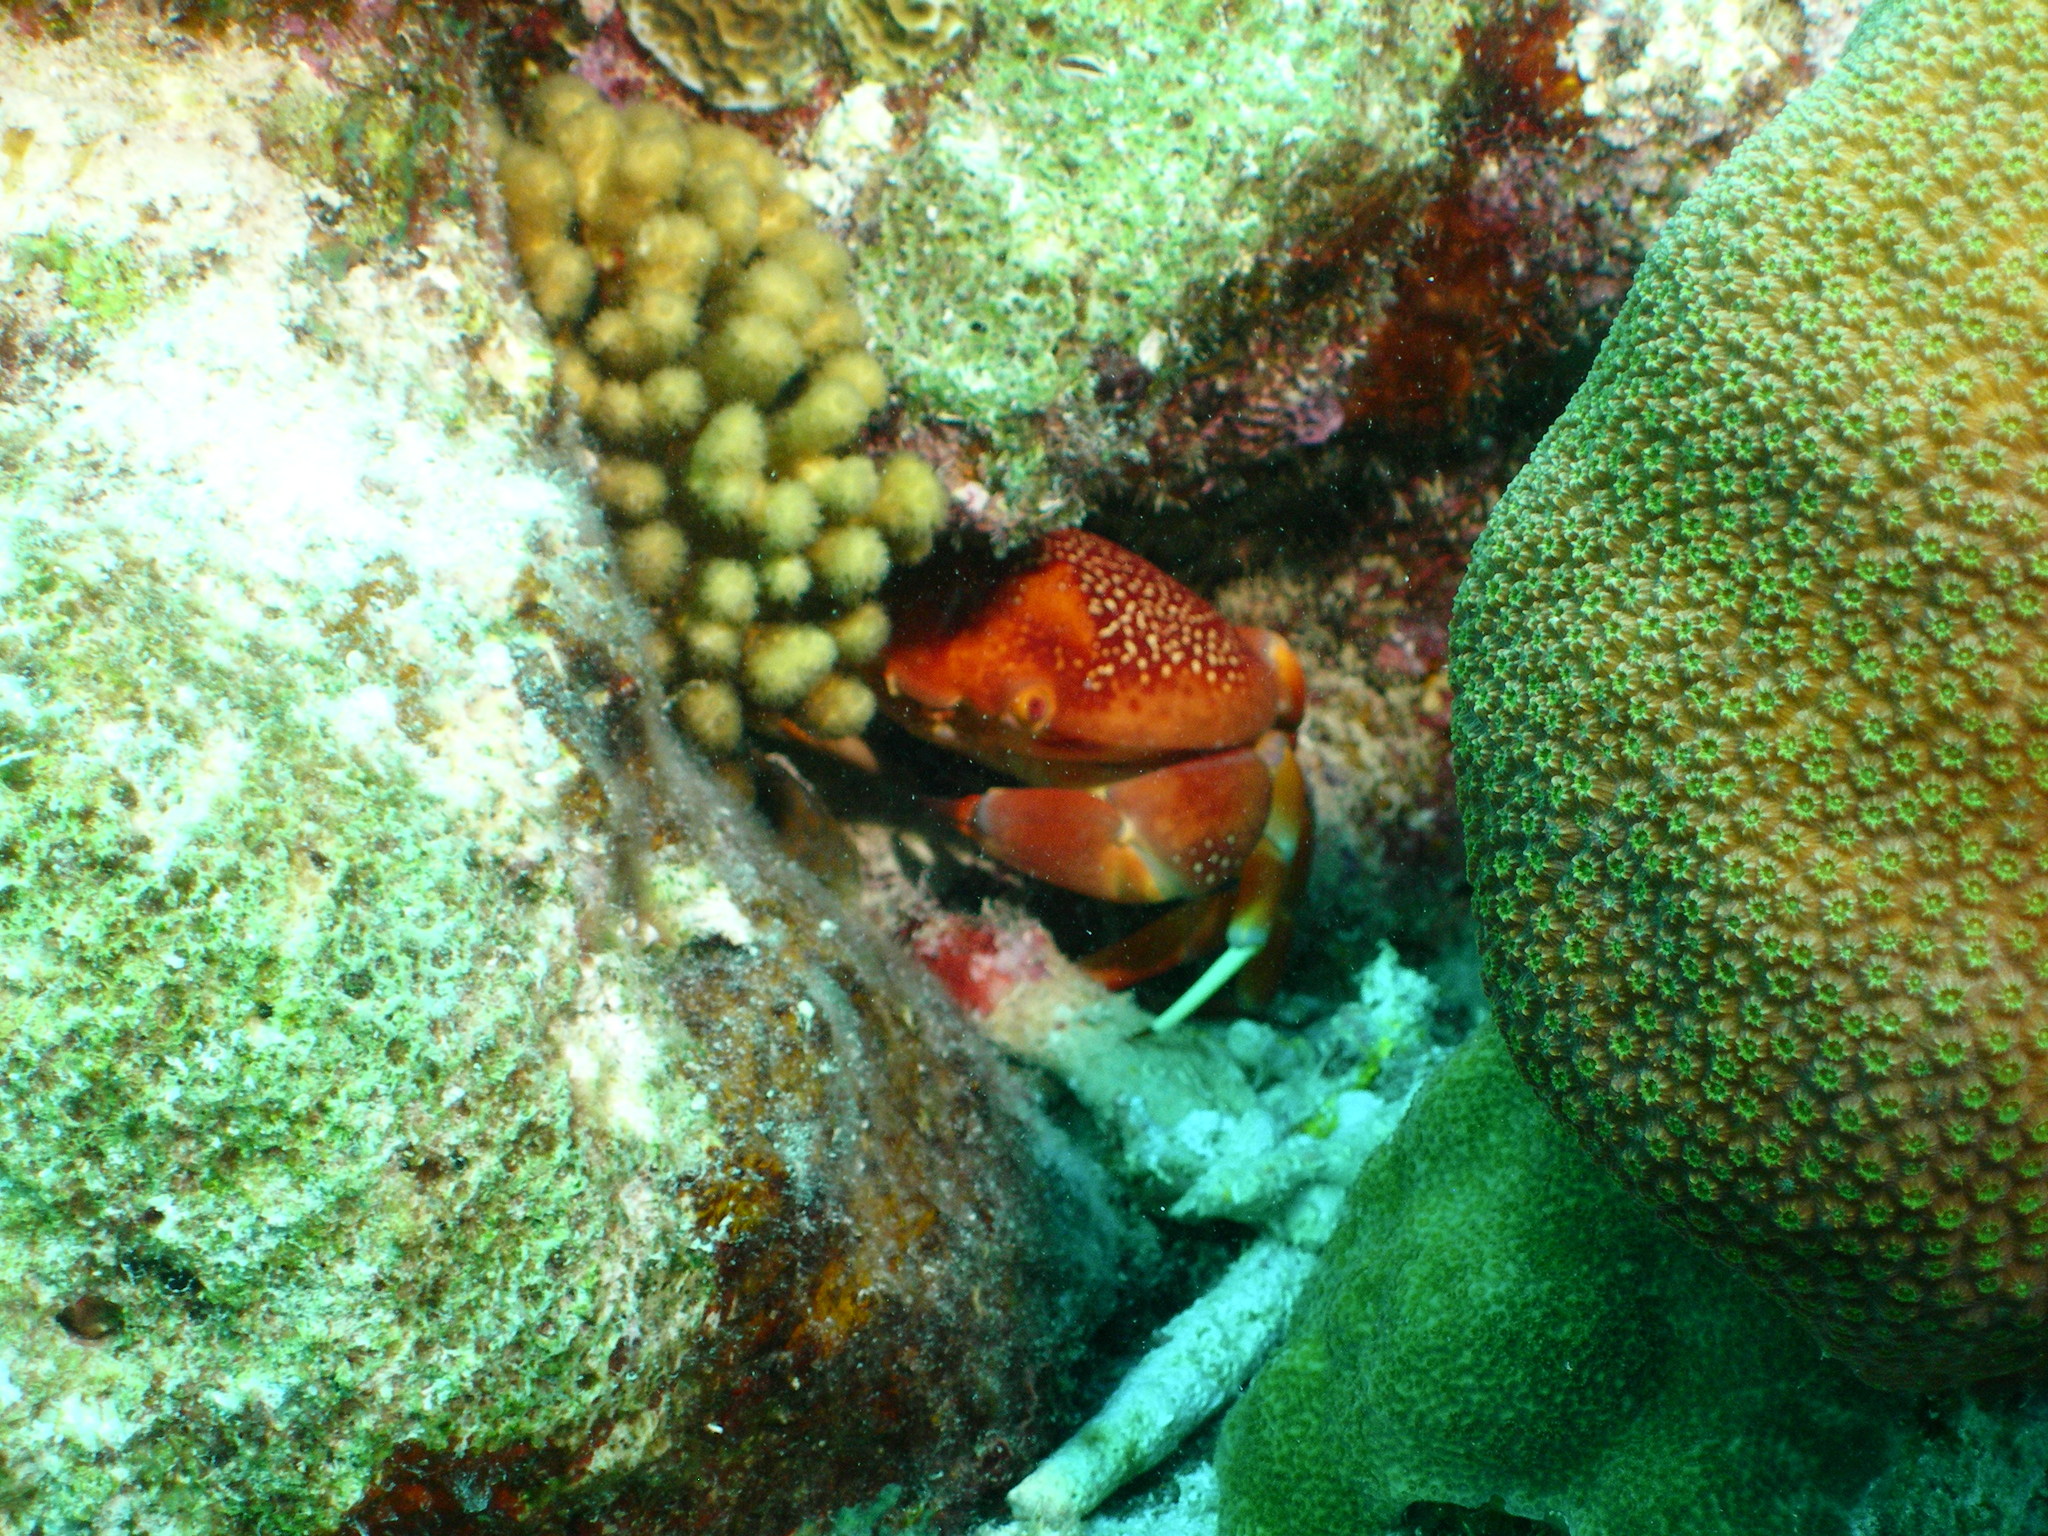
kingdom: Animalia
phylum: Arthropoda
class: Malacostraca
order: Decapoda
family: Carpiliidae
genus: Carpilius
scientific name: Carpilius corallinus
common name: Batwing coral crab
